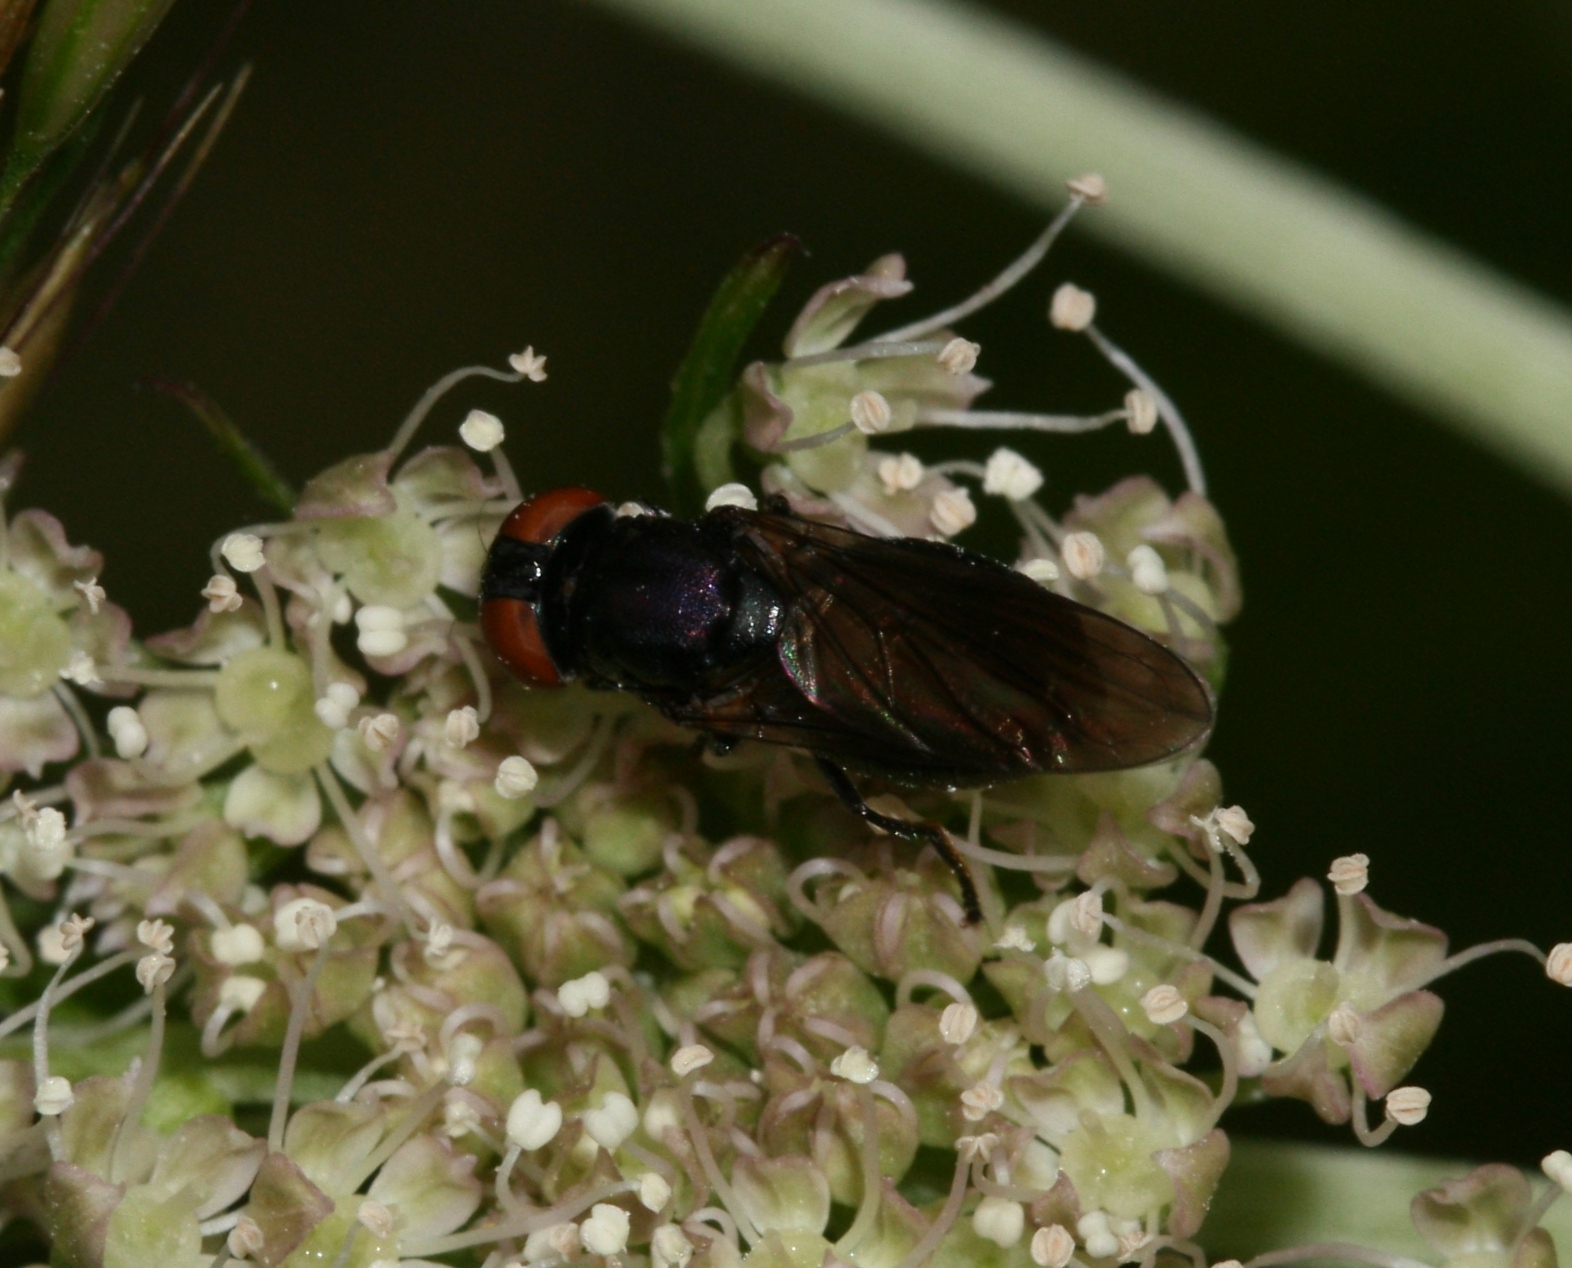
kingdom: Animalia
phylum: Arthropoda
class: Insecta
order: Diptera
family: Syrphidae
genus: Chrysogaster
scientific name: Chrysogaster solstitialis
